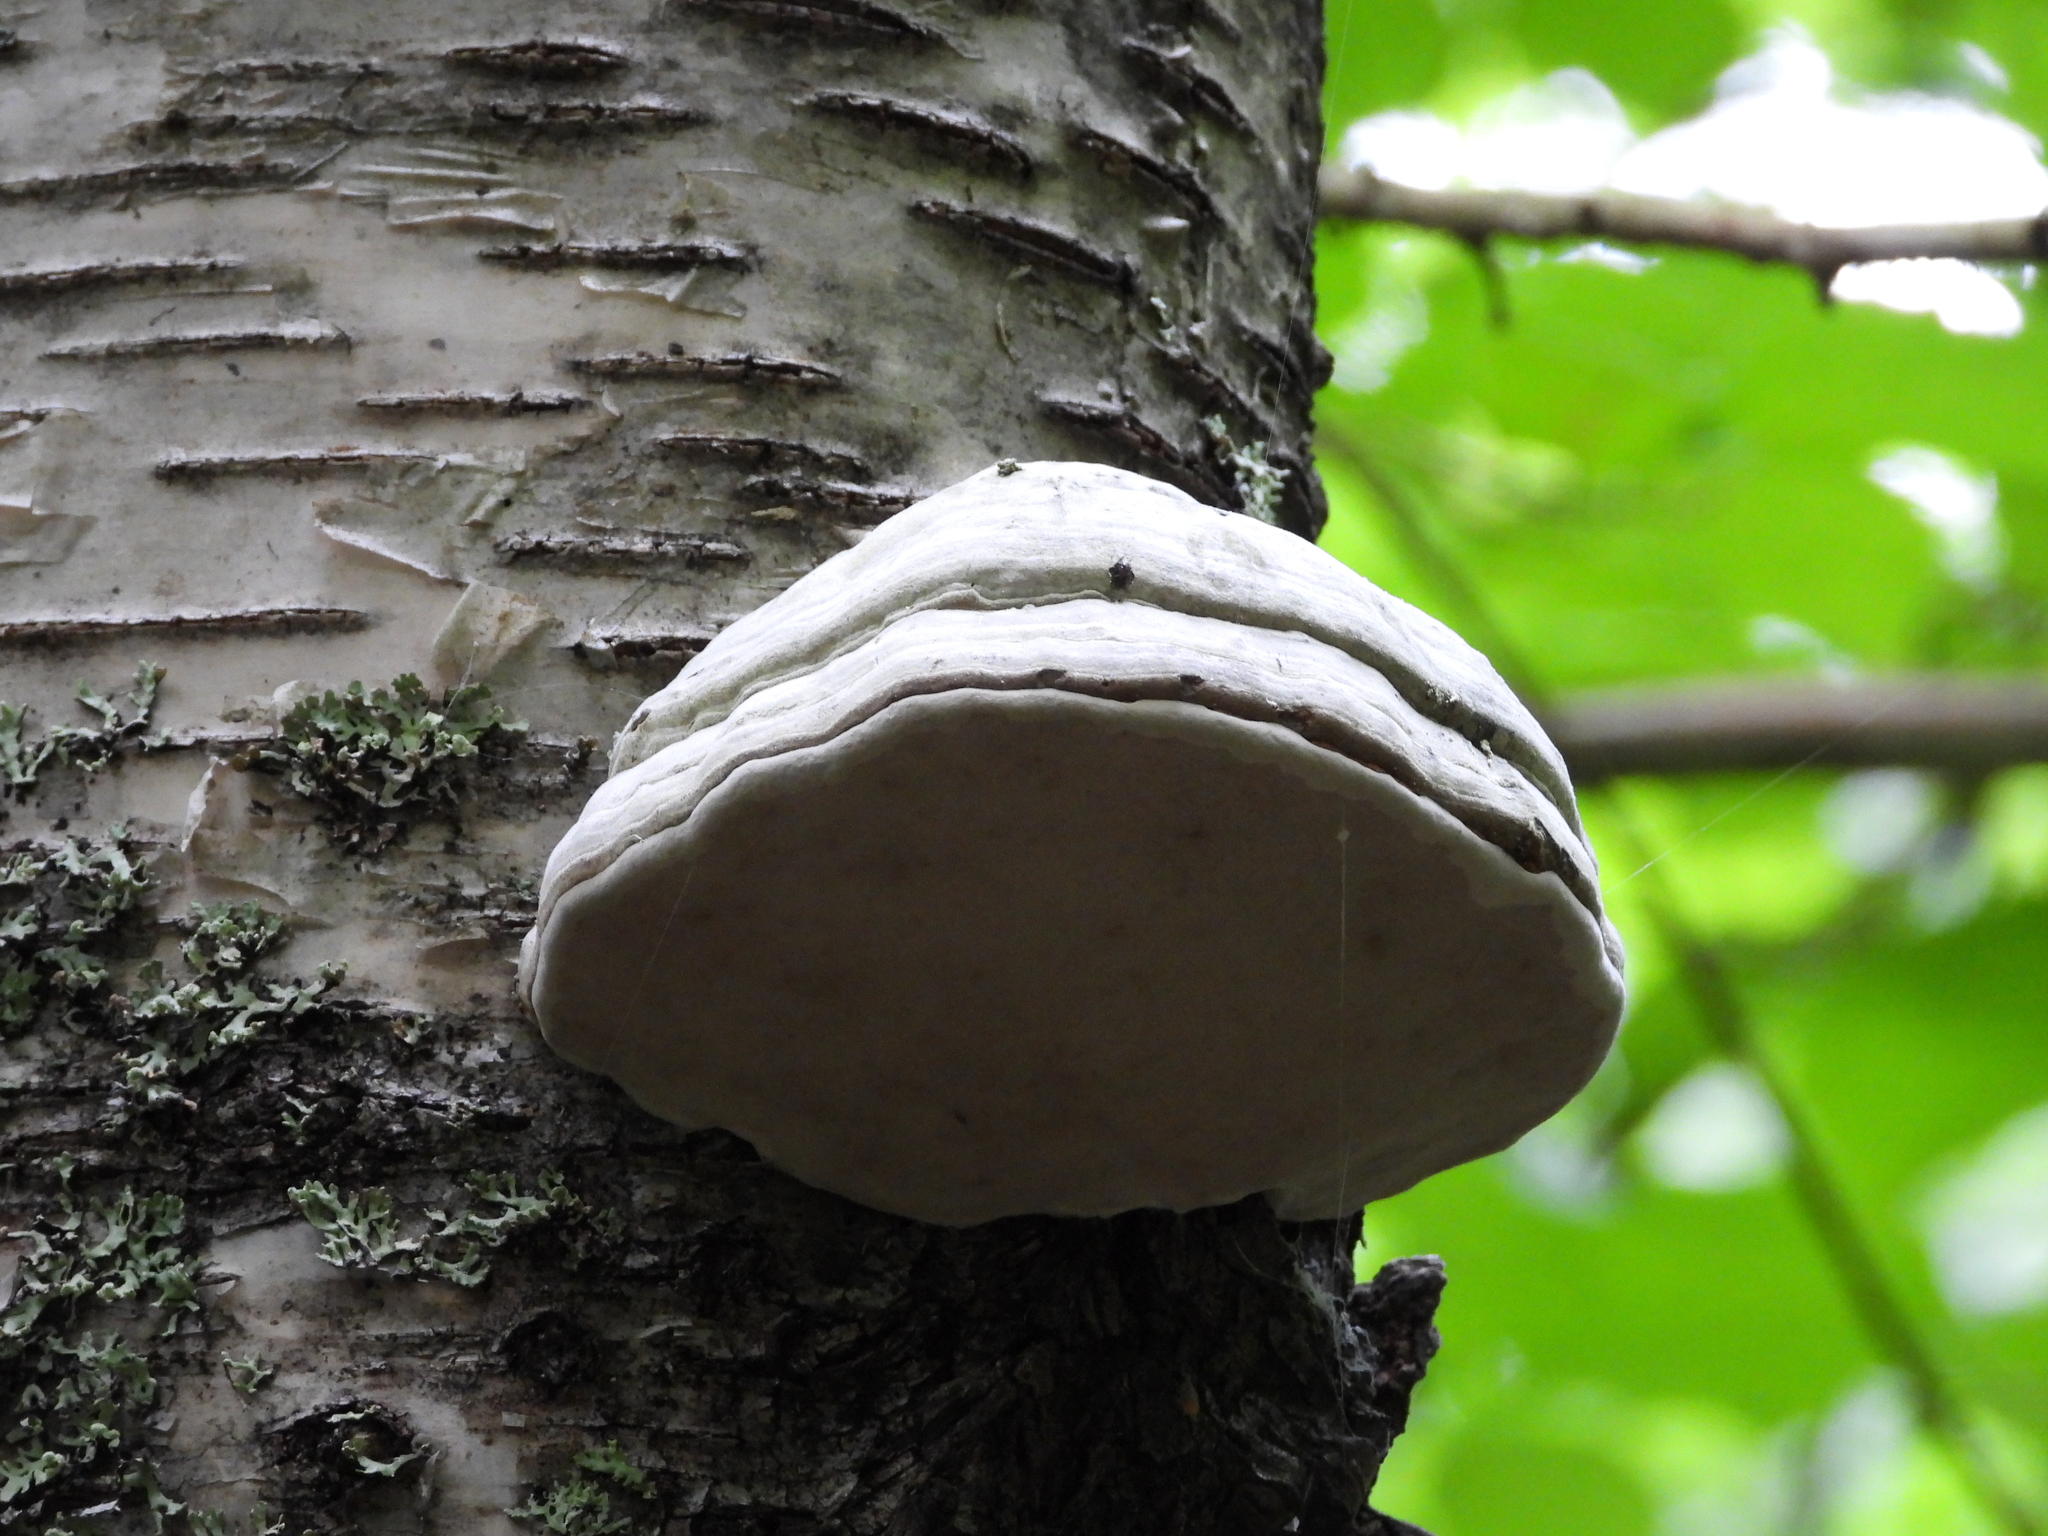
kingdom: Fungi
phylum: Basidiomycota
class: Agaricomycetes
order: Polyporales
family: Polyporaceae
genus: Fomes
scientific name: Fomes fomentarius
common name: Hoof fungus
